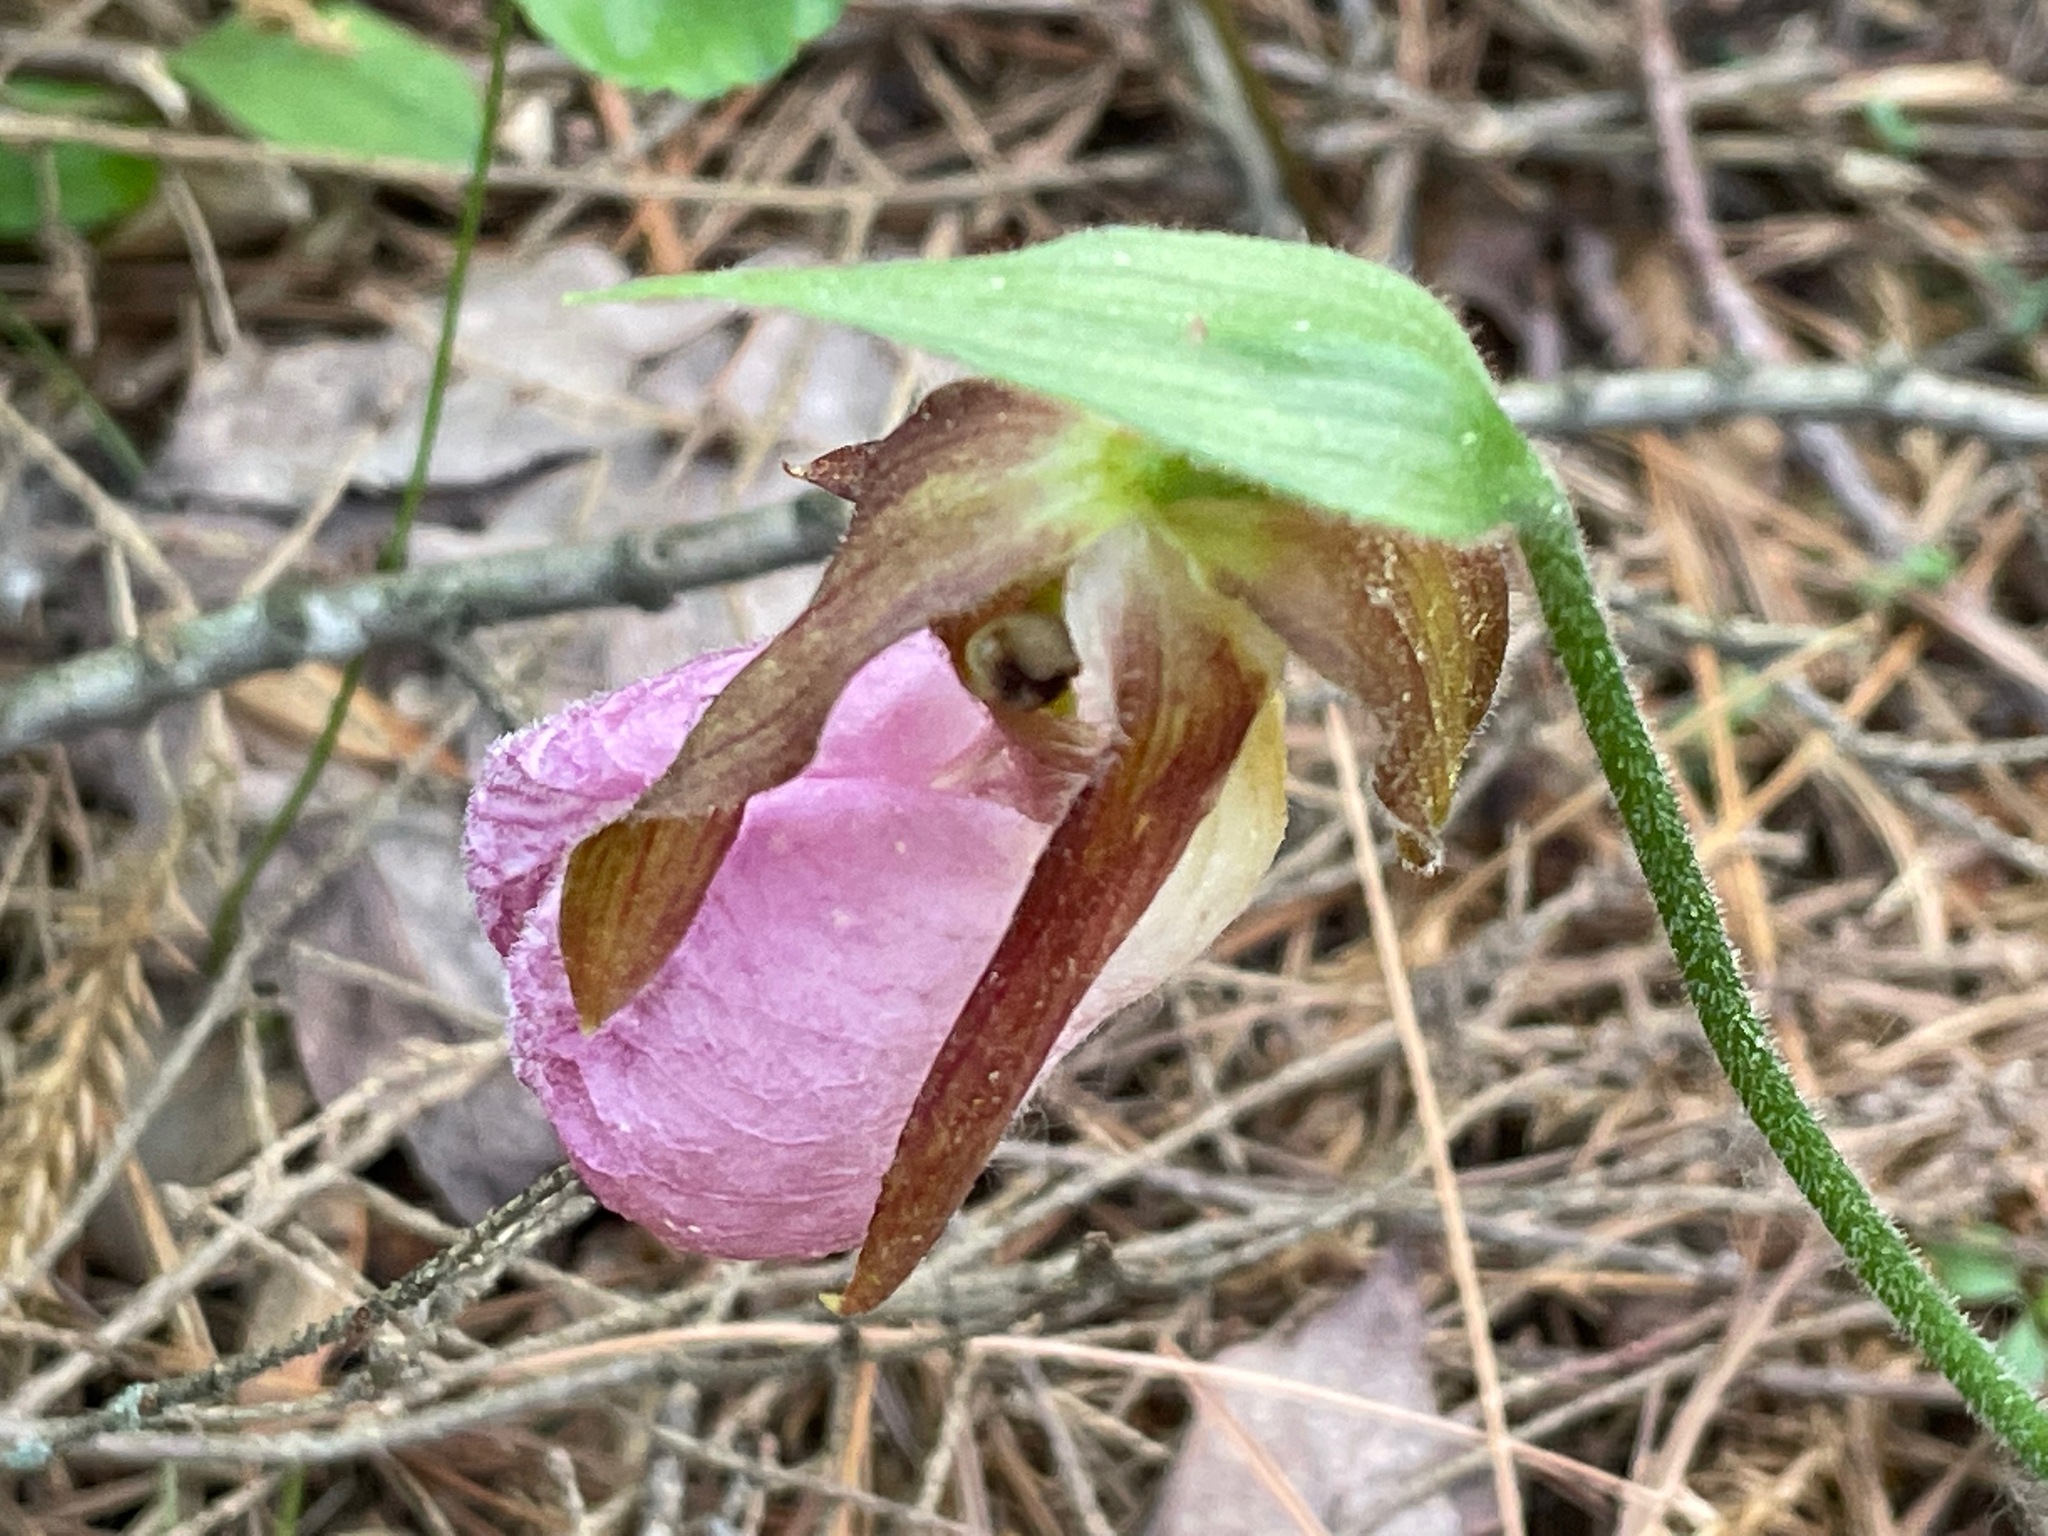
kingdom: Plantae
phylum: Tracheophyta
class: Liliopsida
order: Asparagales
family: Orchidaceae
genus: Cypripedium
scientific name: Cypripedium acaule
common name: Pink lady's-slipper
